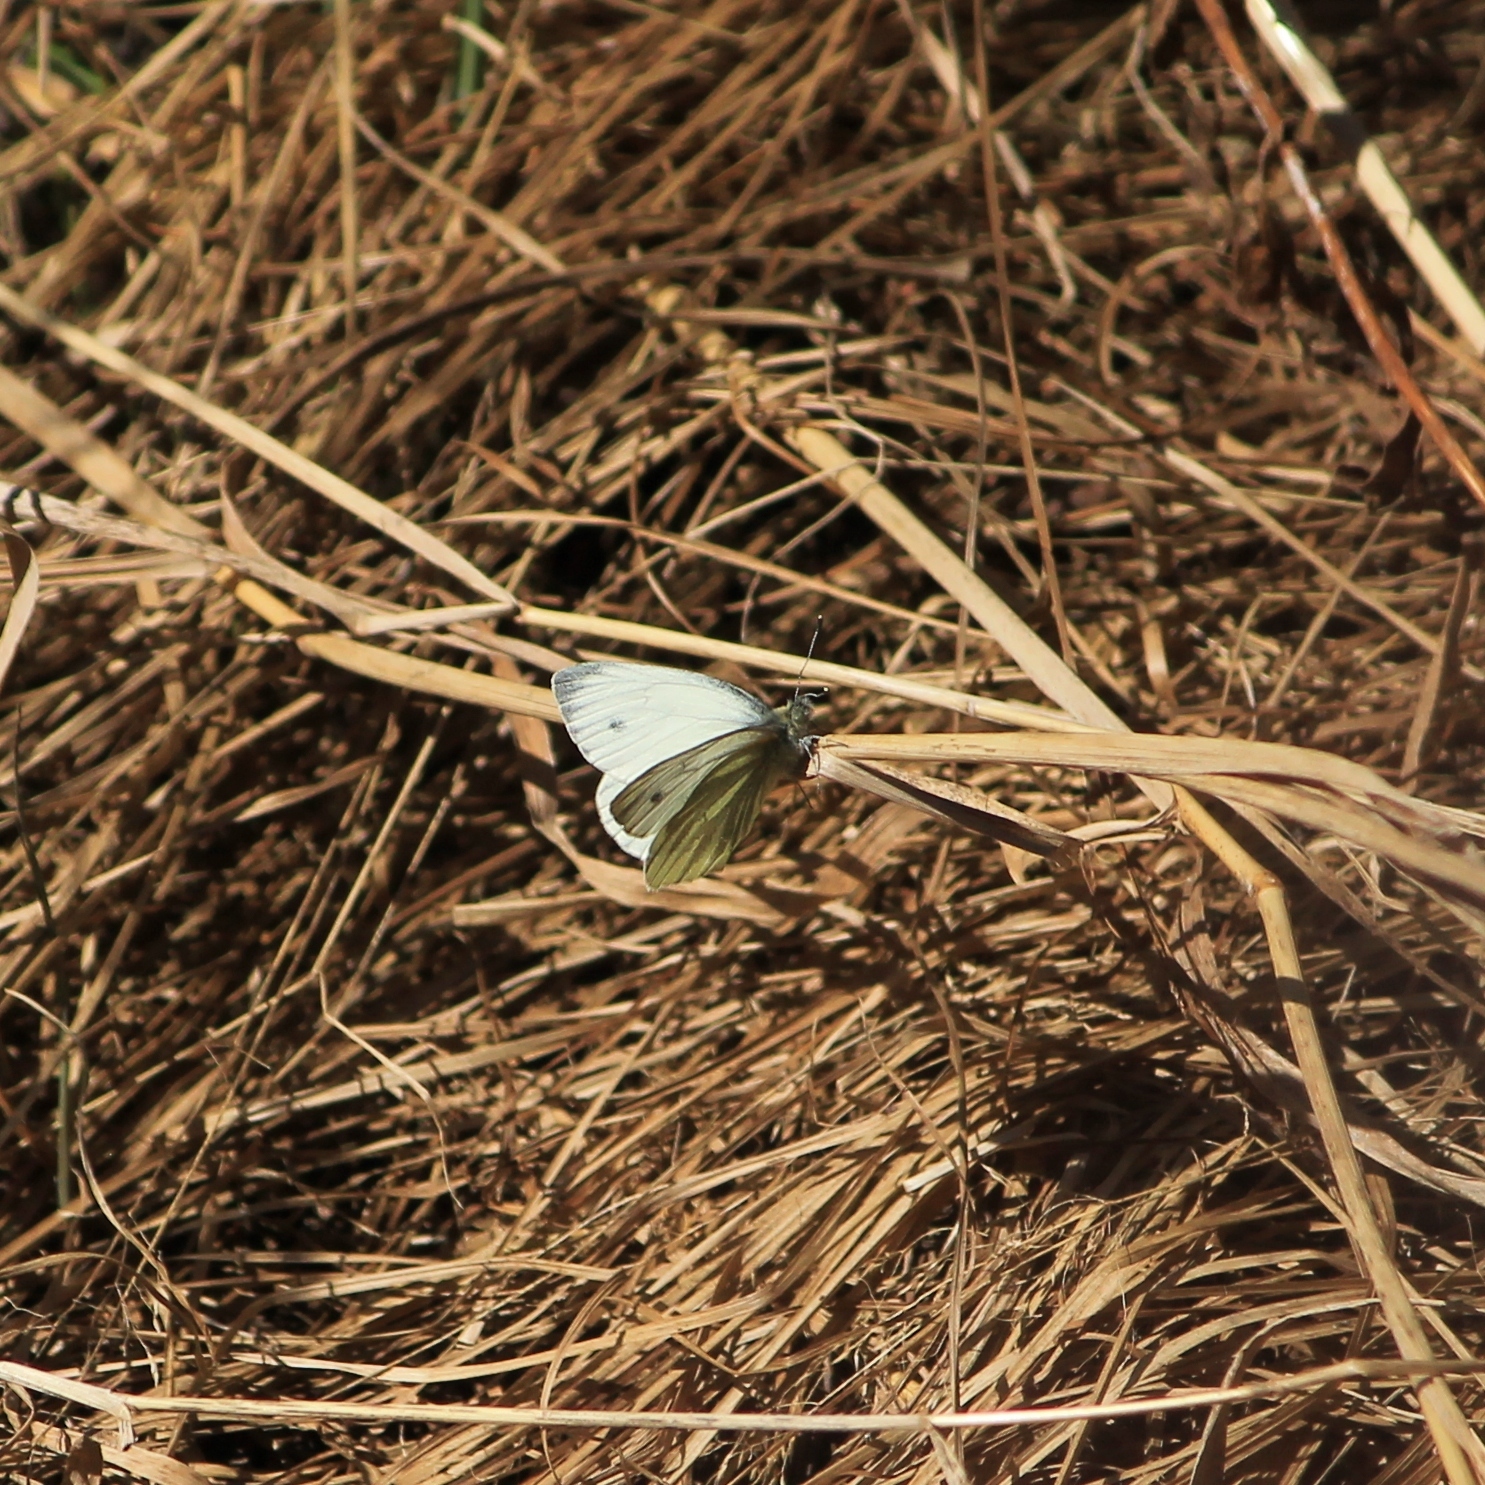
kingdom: Animalia
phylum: Arthropoda
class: Insecta
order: Lepidoptera
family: Pieridae
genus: Pieris
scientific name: Pieris napi
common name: Green-veined white
